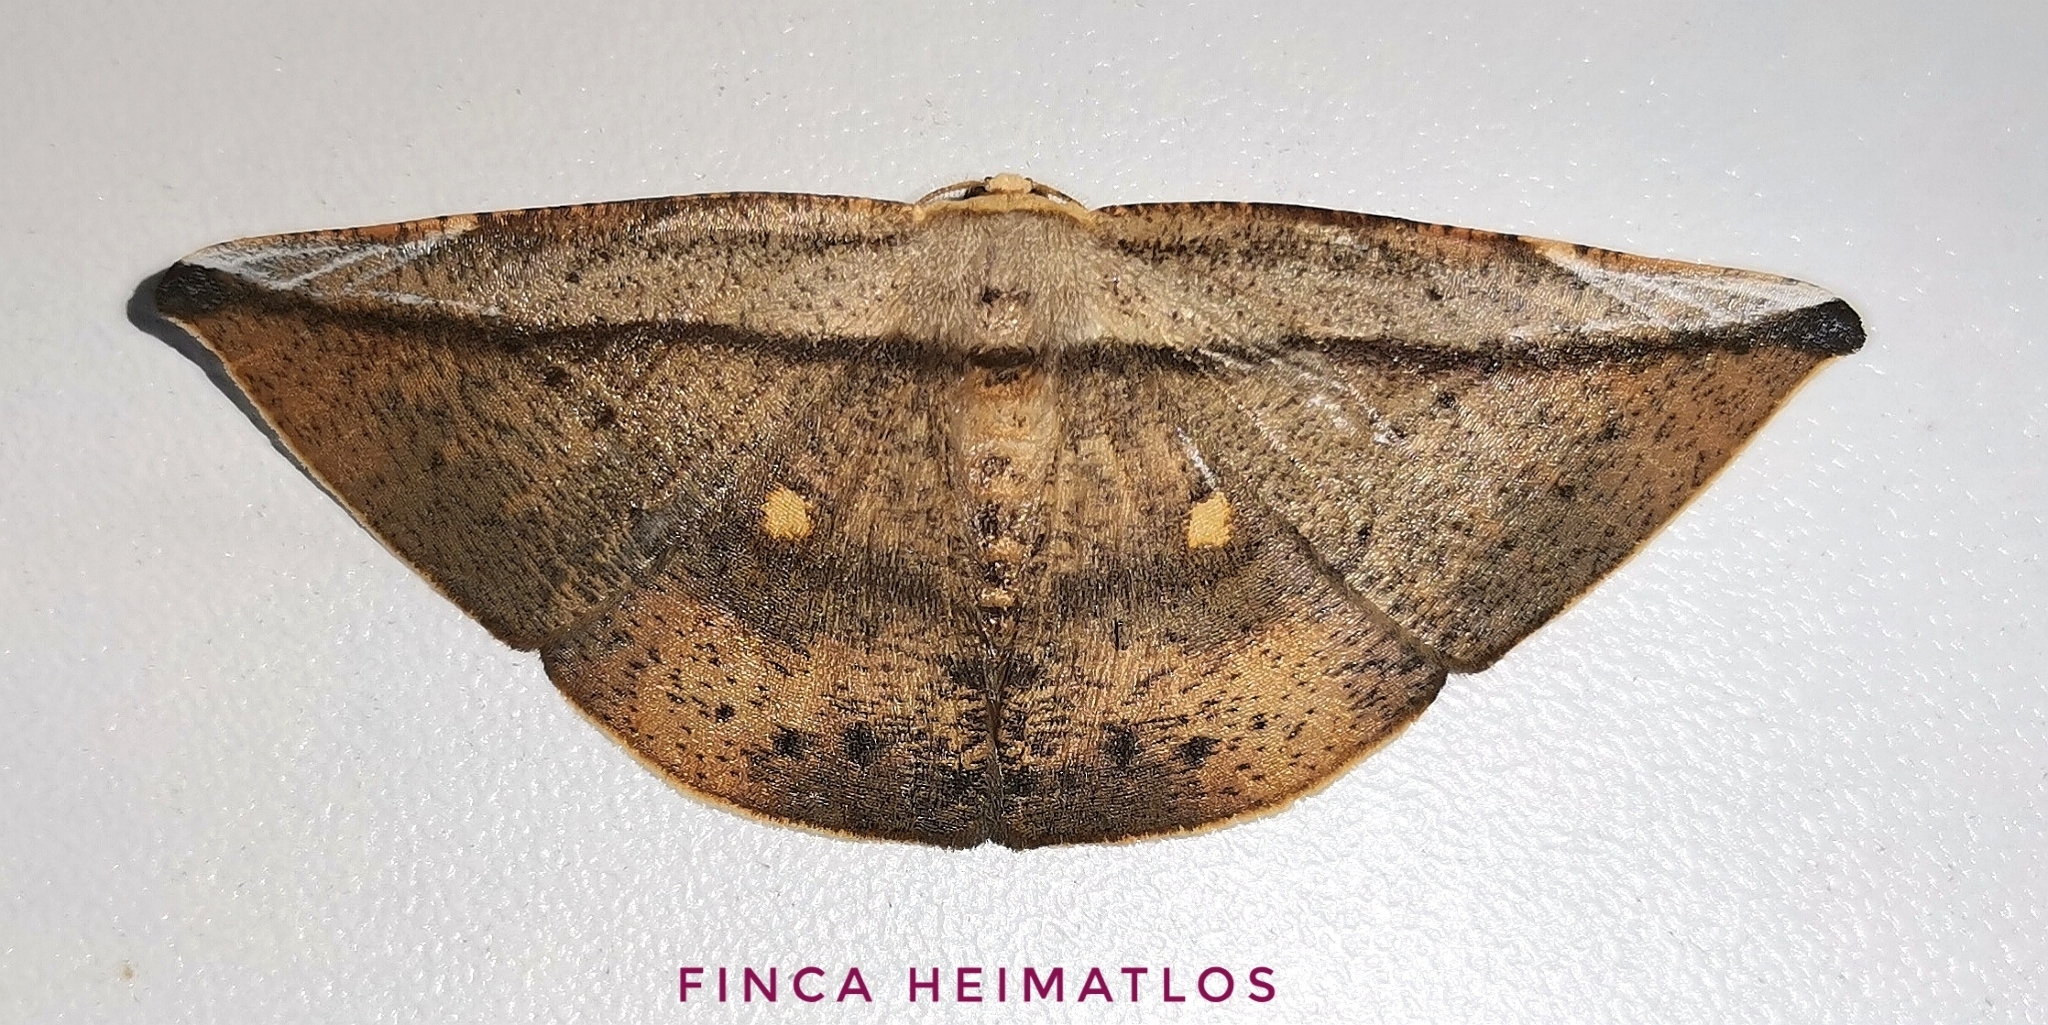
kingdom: Animalia
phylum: Arthropoda
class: Insecta
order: Lepidoptera
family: Geometridae
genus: Polla
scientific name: Polla varipes
